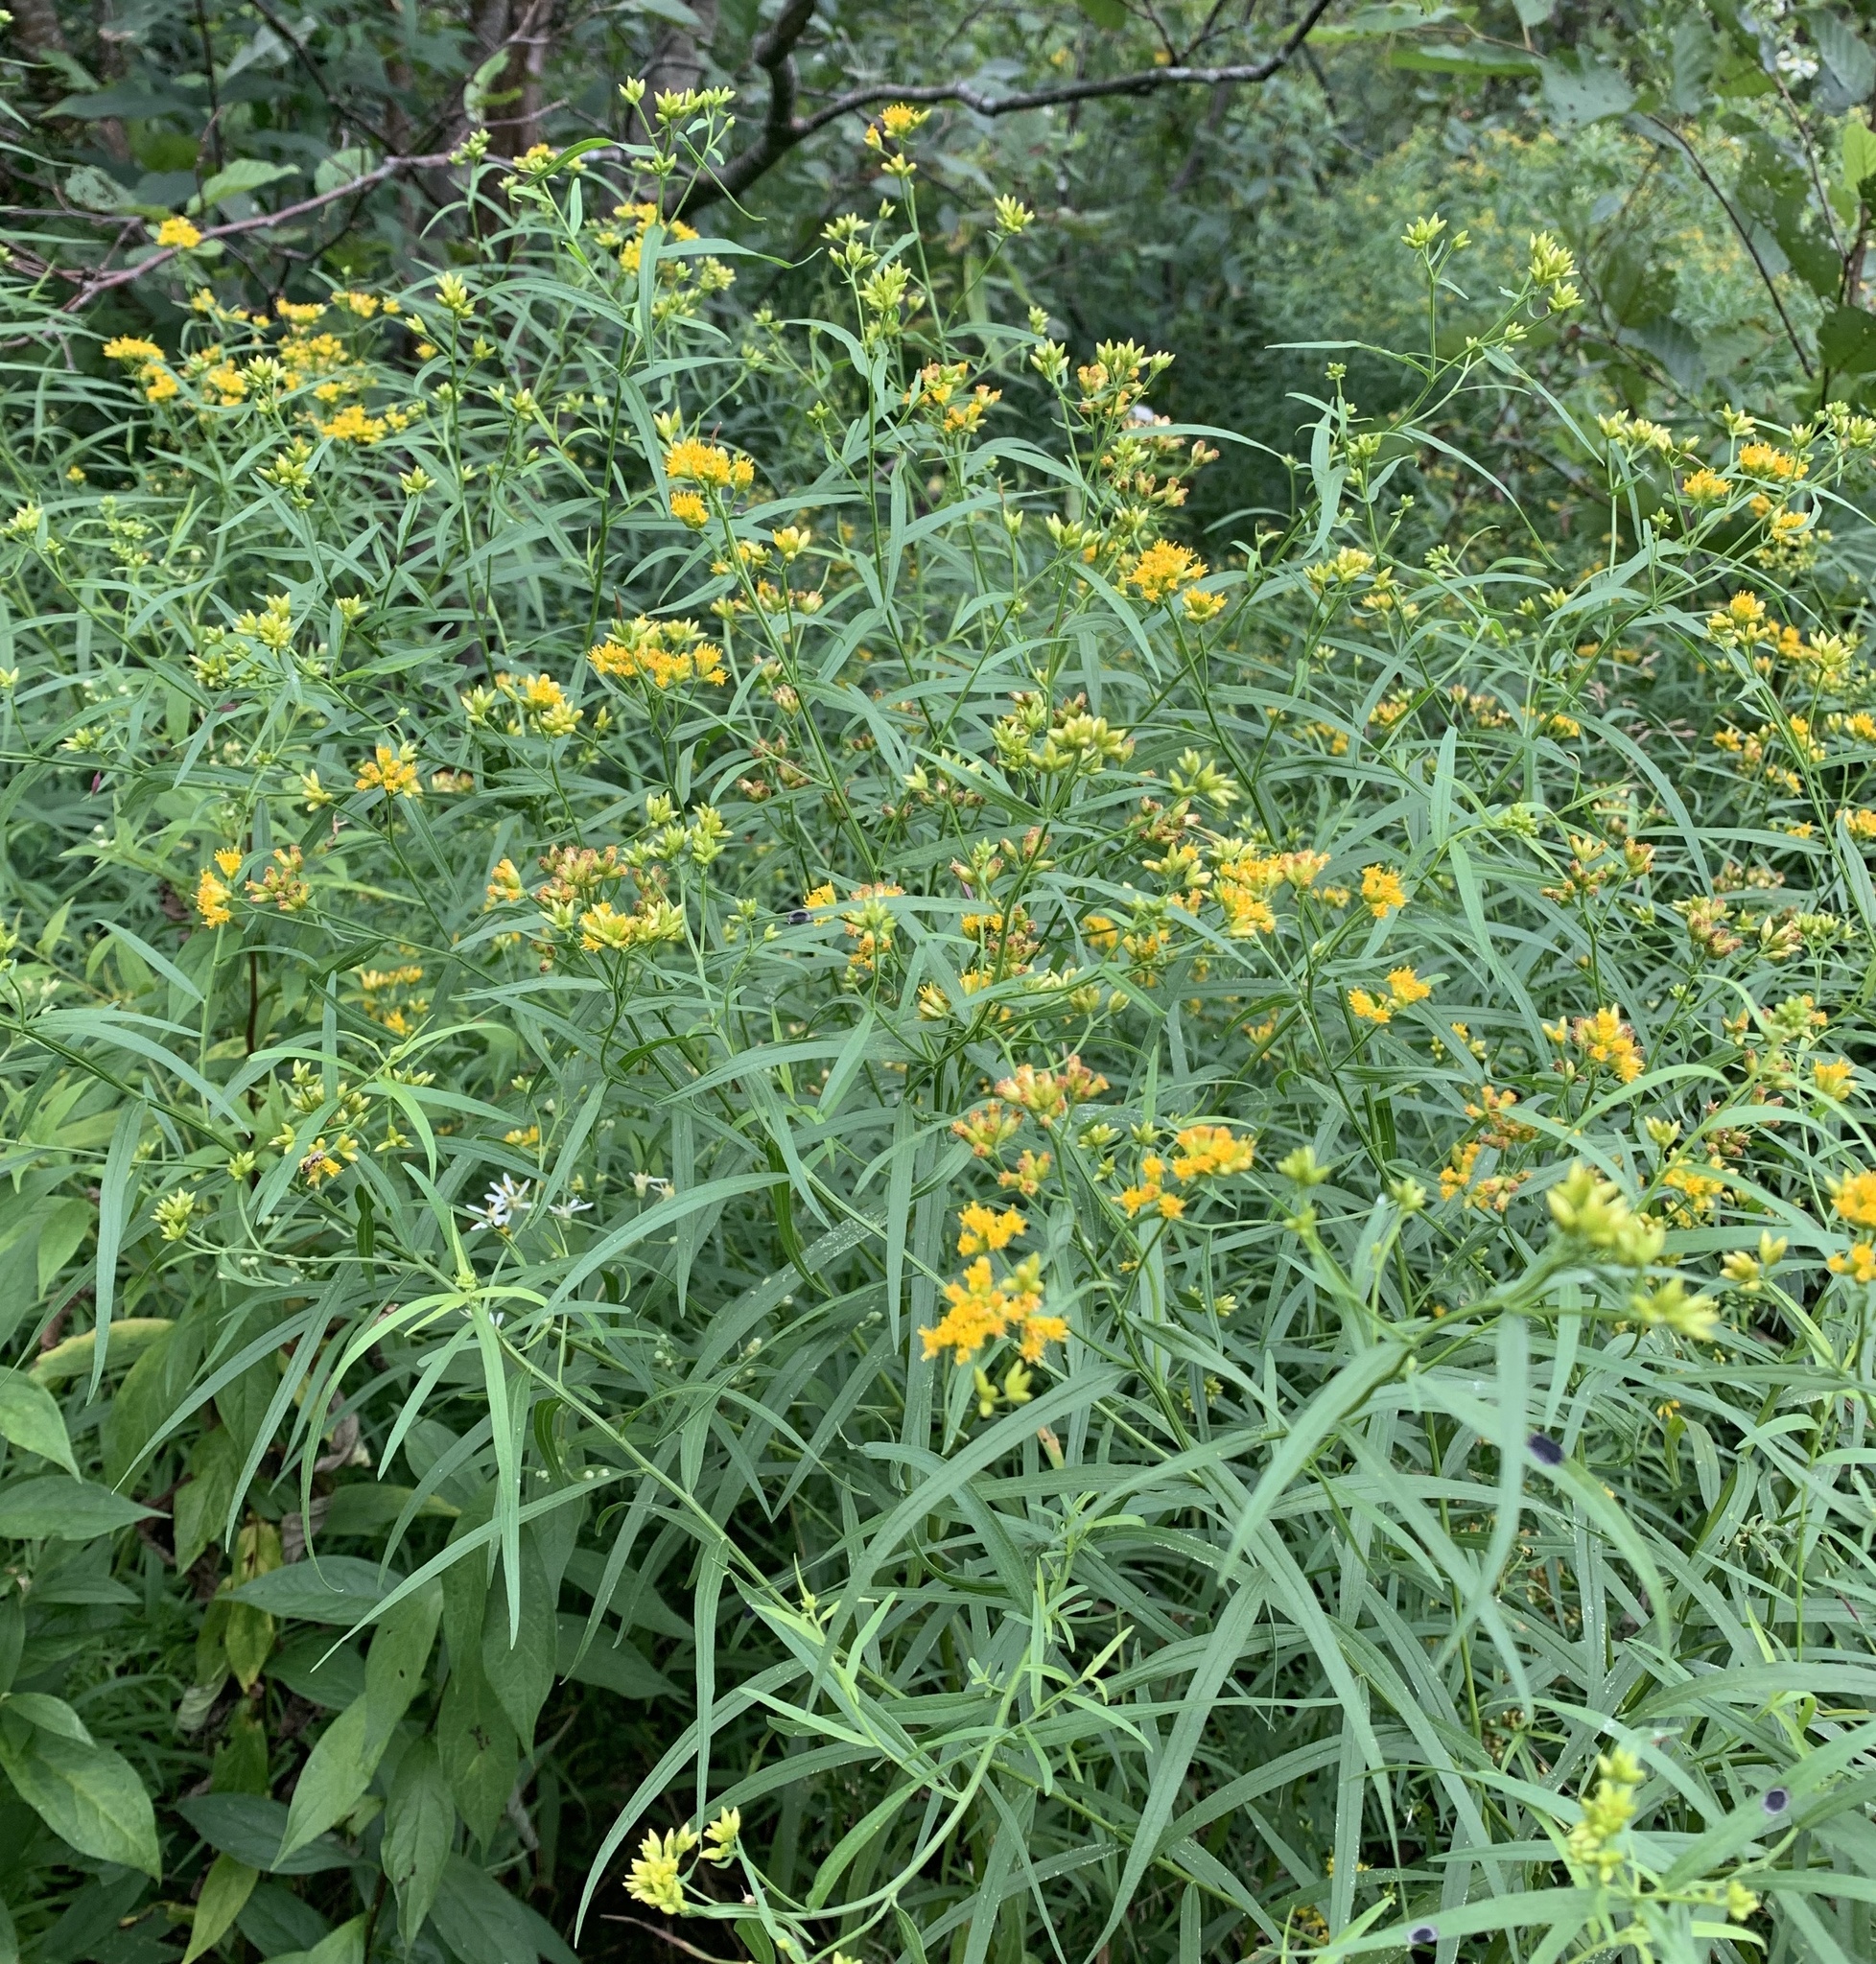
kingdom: Plantae
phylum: Tracheophyta
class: Magnoliopsida
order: Asterales
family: Asteraceae
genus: Euthamia
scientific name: Euthamia graminifolia
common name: Common goldentop
